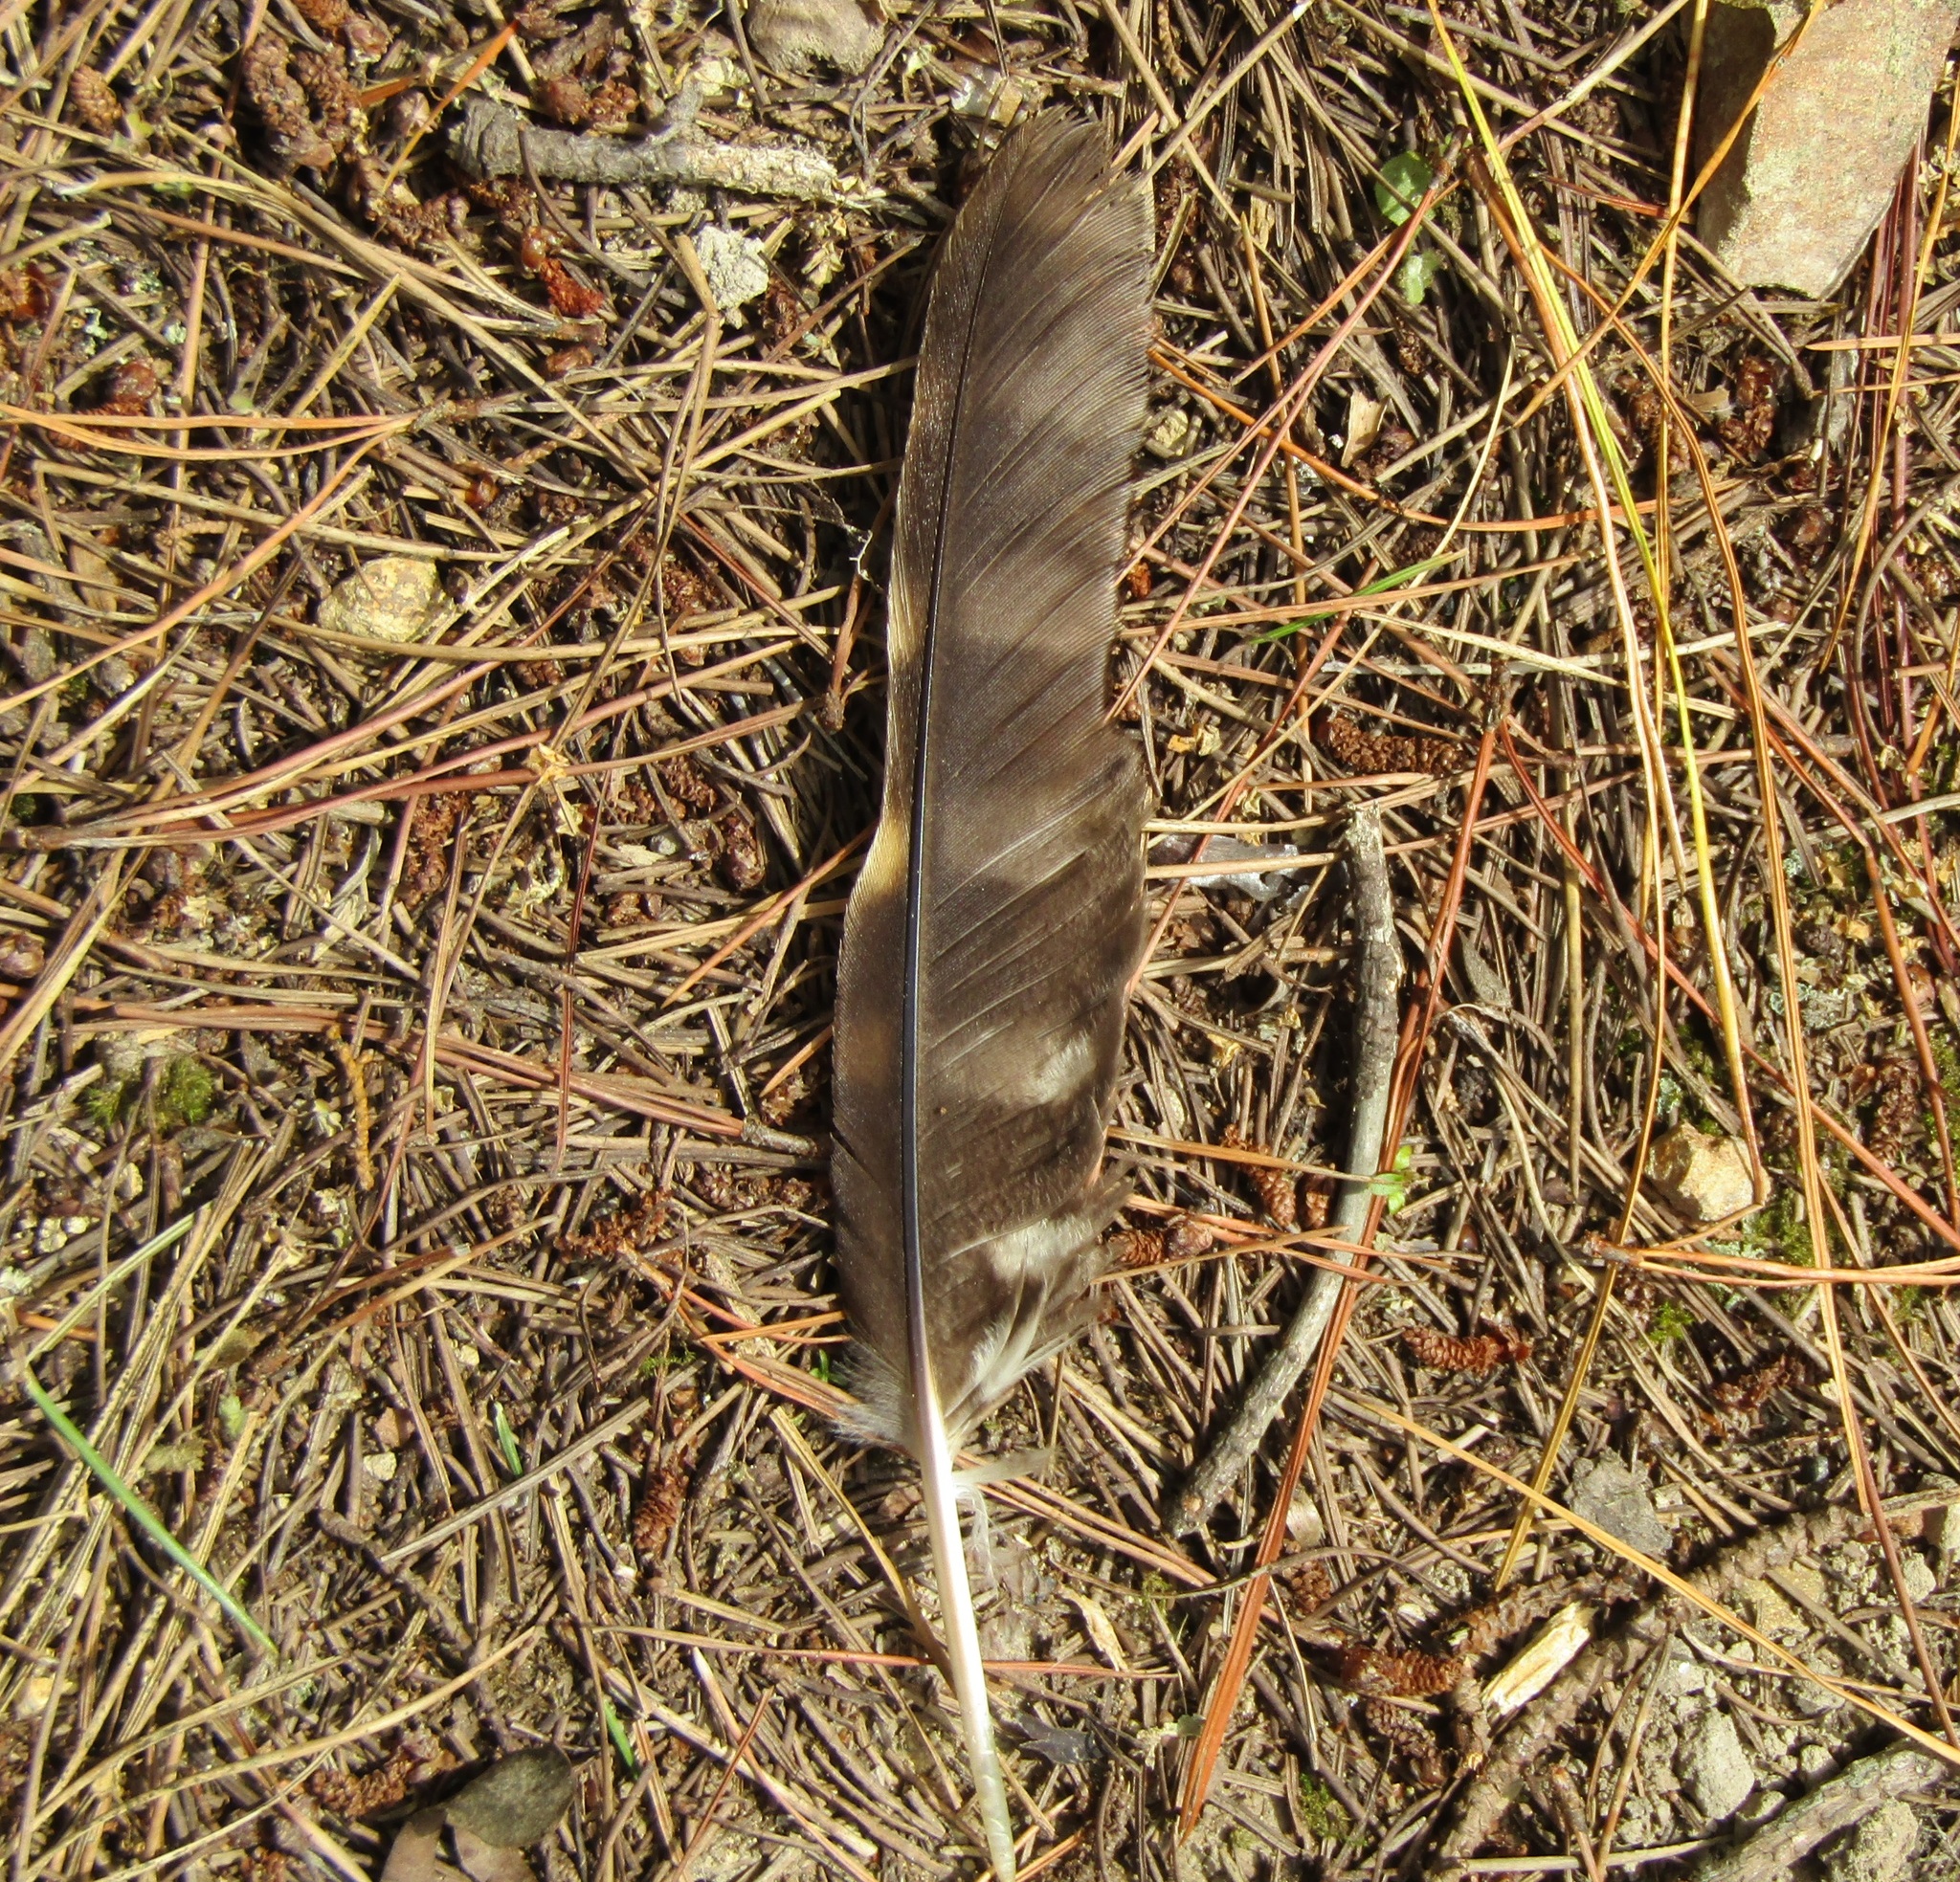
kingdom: Animalia
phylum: Chordata
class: Aves
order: Strigiformes
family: Strigidae
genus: Ninox
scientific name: Ninox novaeseelandiae
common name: Morepork
